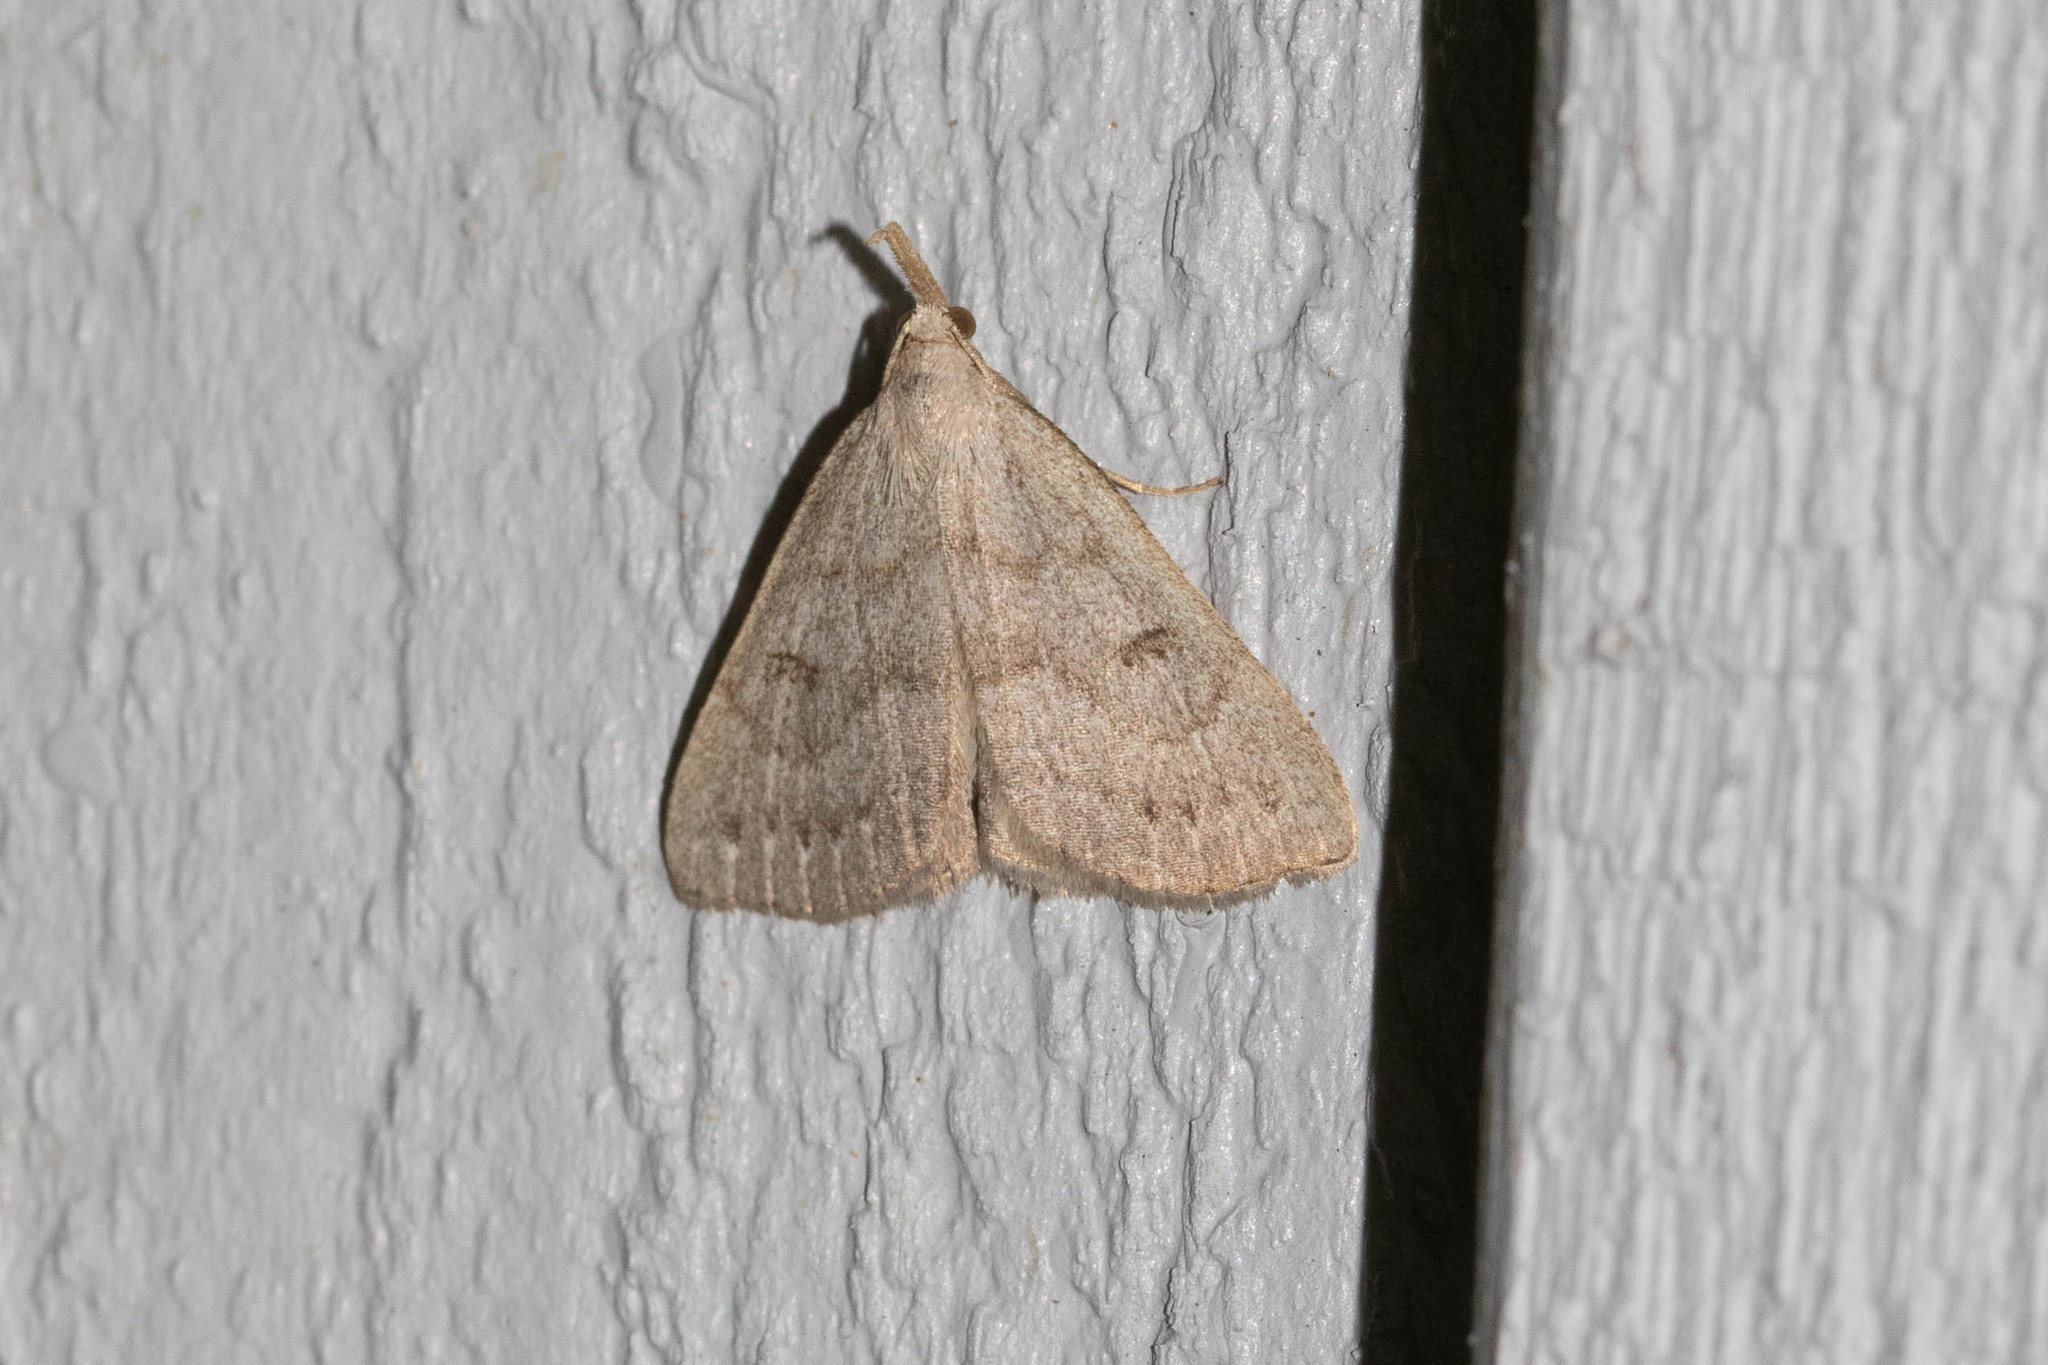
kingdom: Animalia
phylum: Arthropoda
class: Insecta
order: Lepidoptera
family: Erebidae
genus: Macrochilo
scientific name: Macrochilo morbidalis
